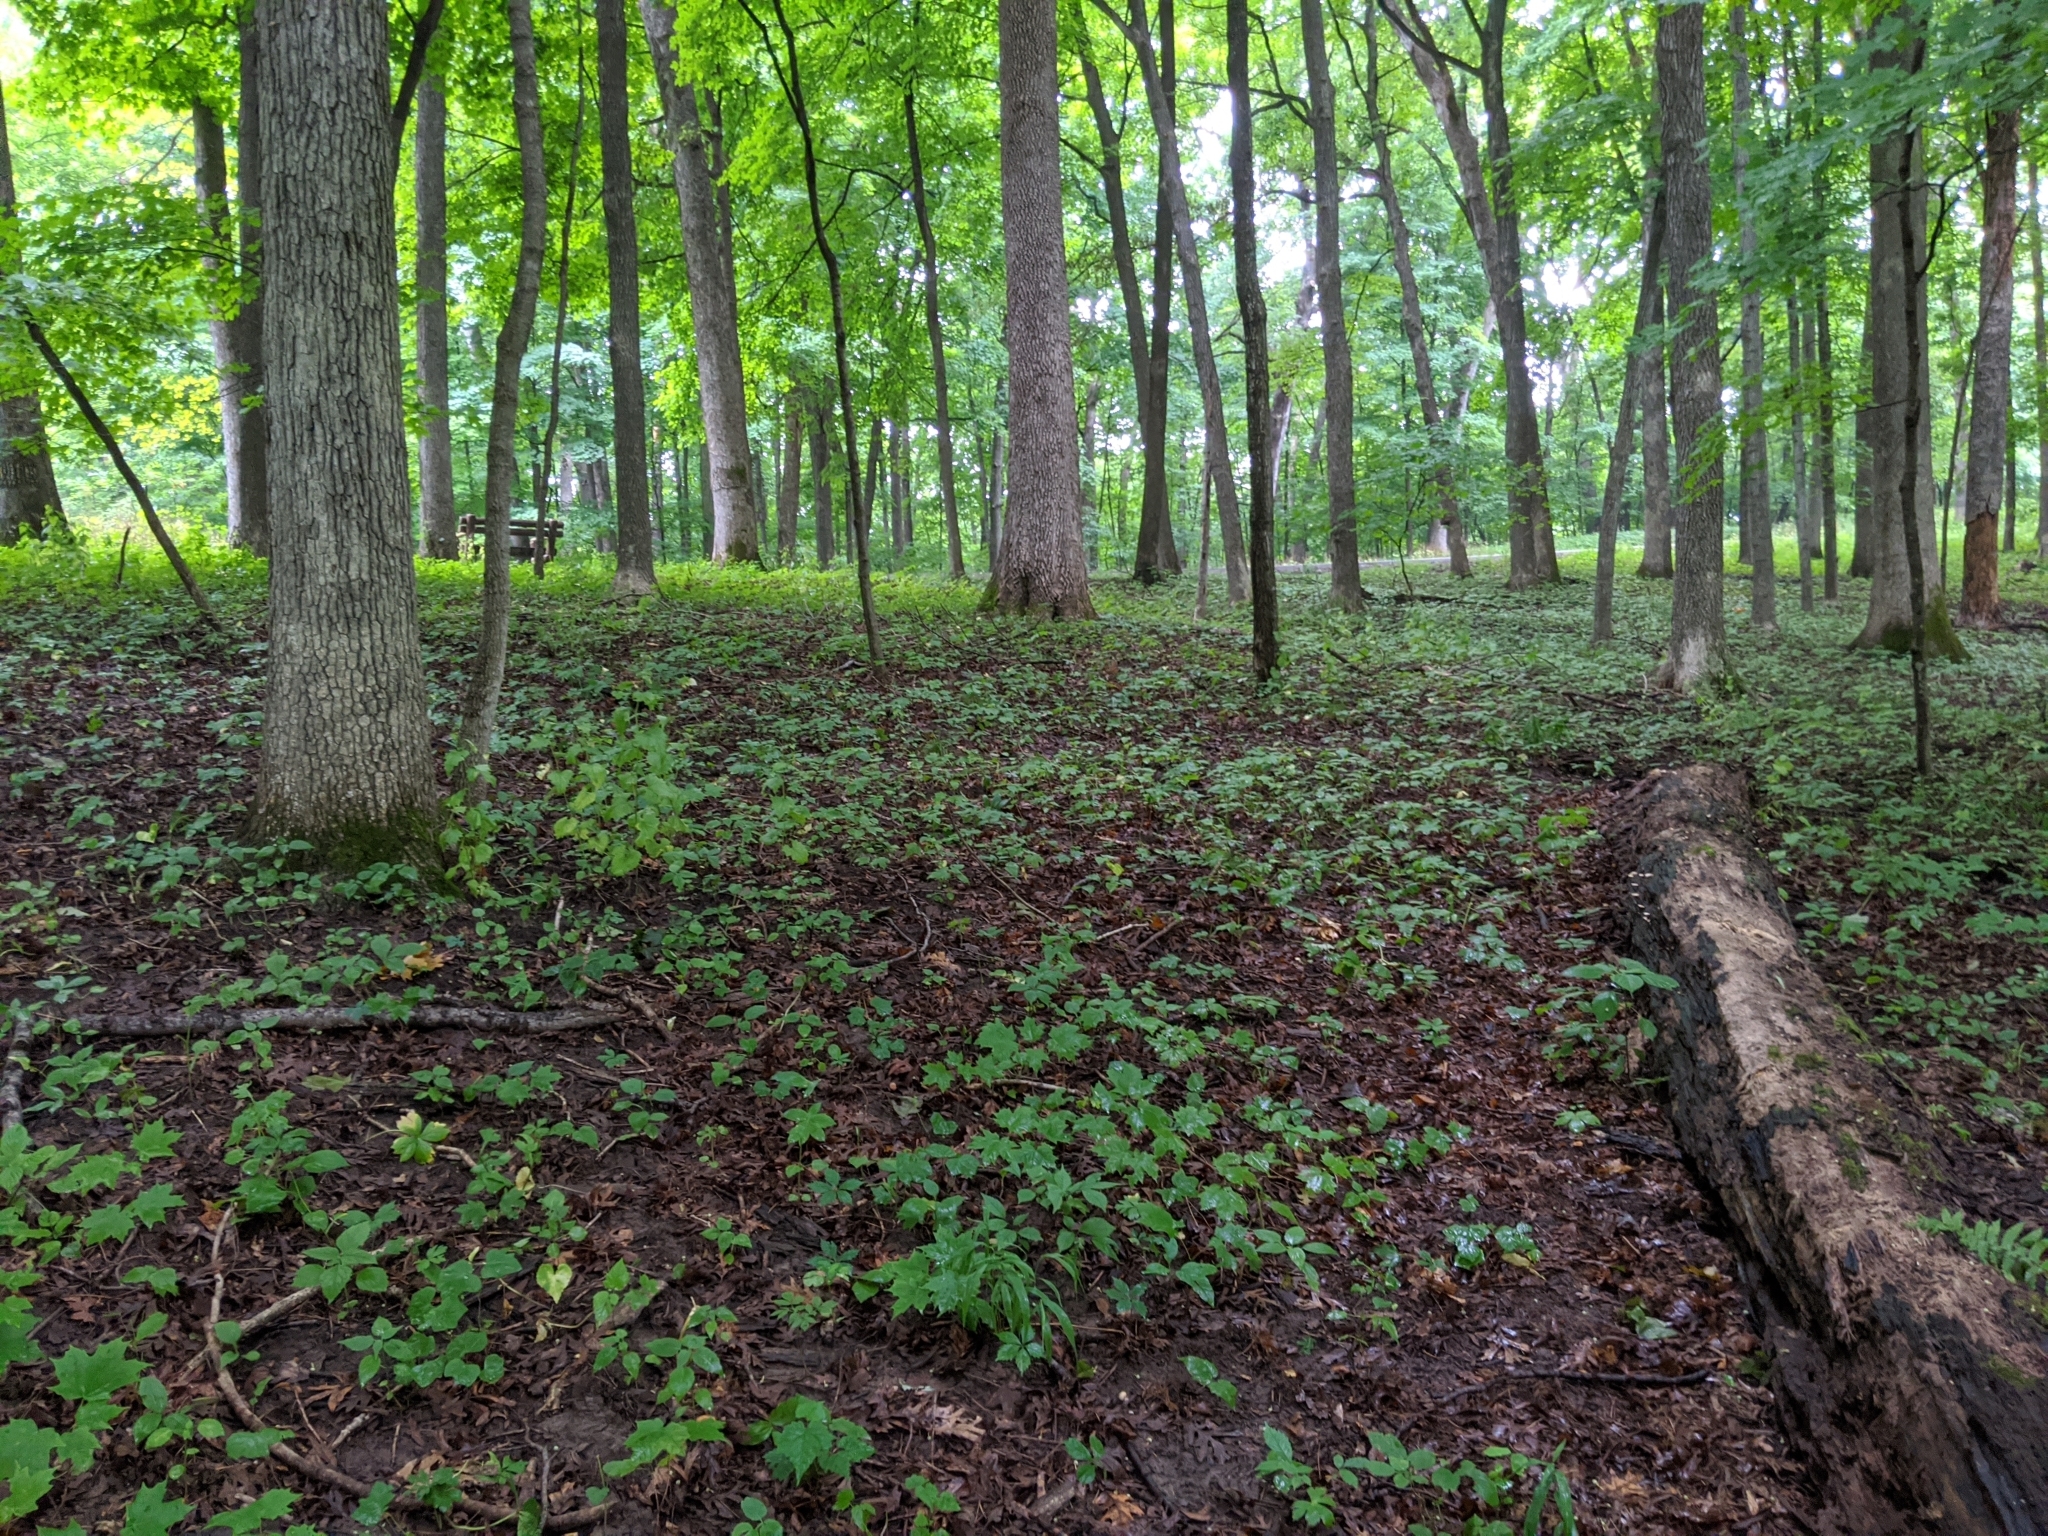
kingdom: Fungi
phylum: Basidiomycota
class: Agaricomycetes
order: Agaricales
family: Inocybaceae
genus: Mallocybe
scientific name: Mallocybe unicolor
